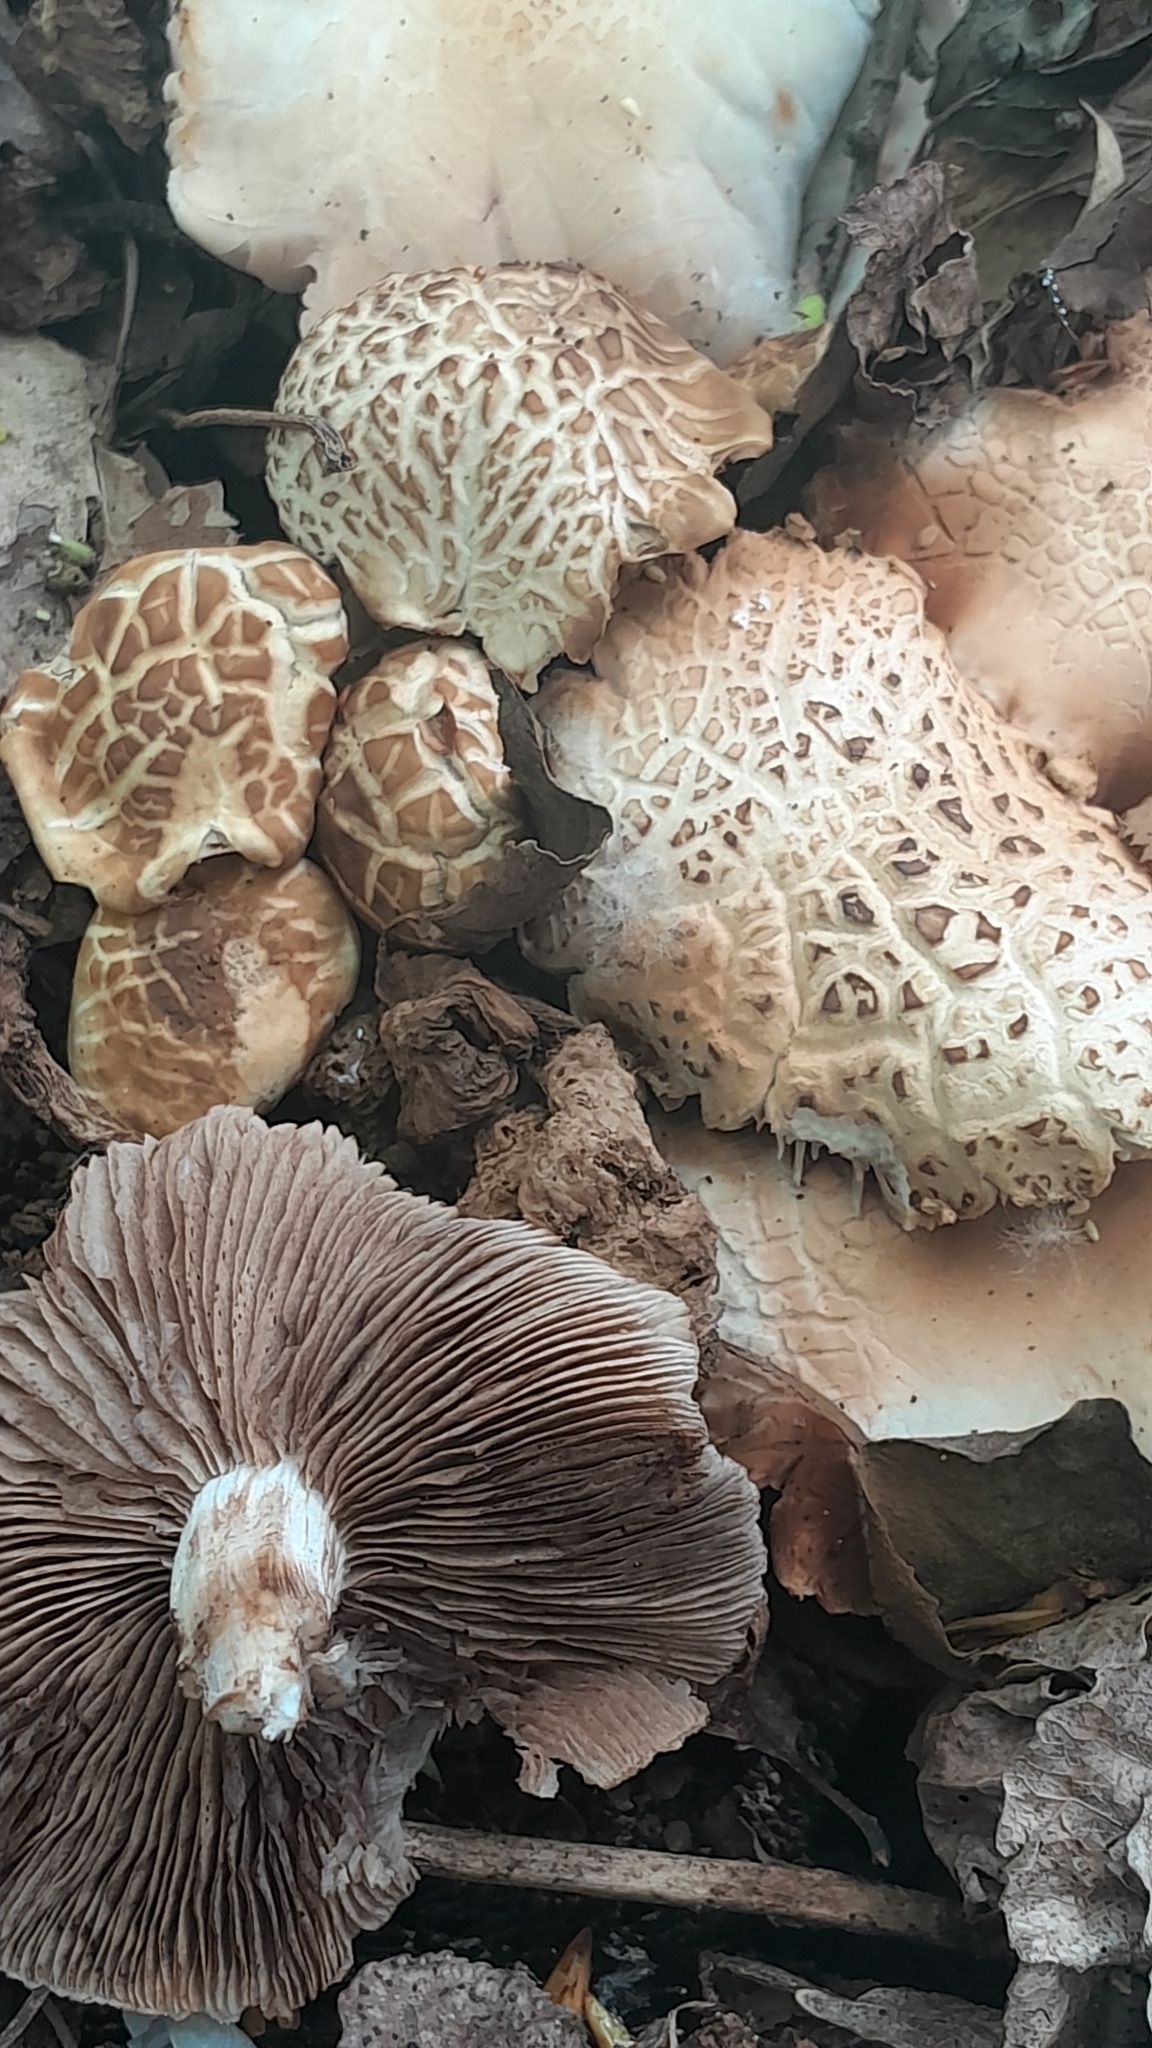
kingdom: Fungi
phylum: Basidiomycota
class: Agaricomycetes
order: Agaricales
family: Tubariaceae
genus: Cyclocybe
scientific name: Cyclocybe cylindracea
